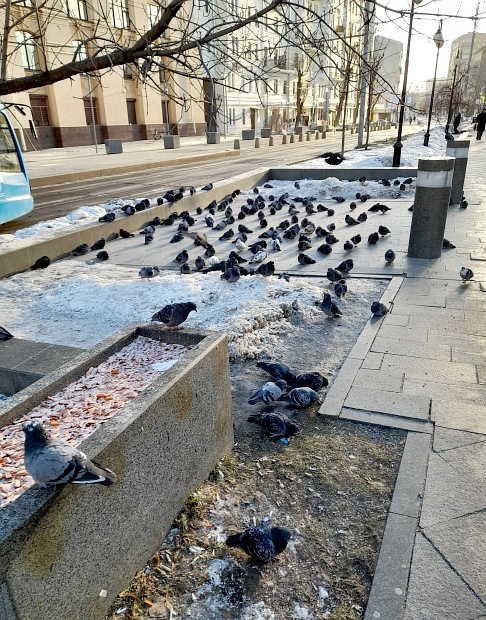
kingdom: Animalia
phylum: Chordata
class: Aves
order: Columbiformes
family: Columbidae
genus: Columba
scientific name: Columba livia
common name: Rock pigeon
